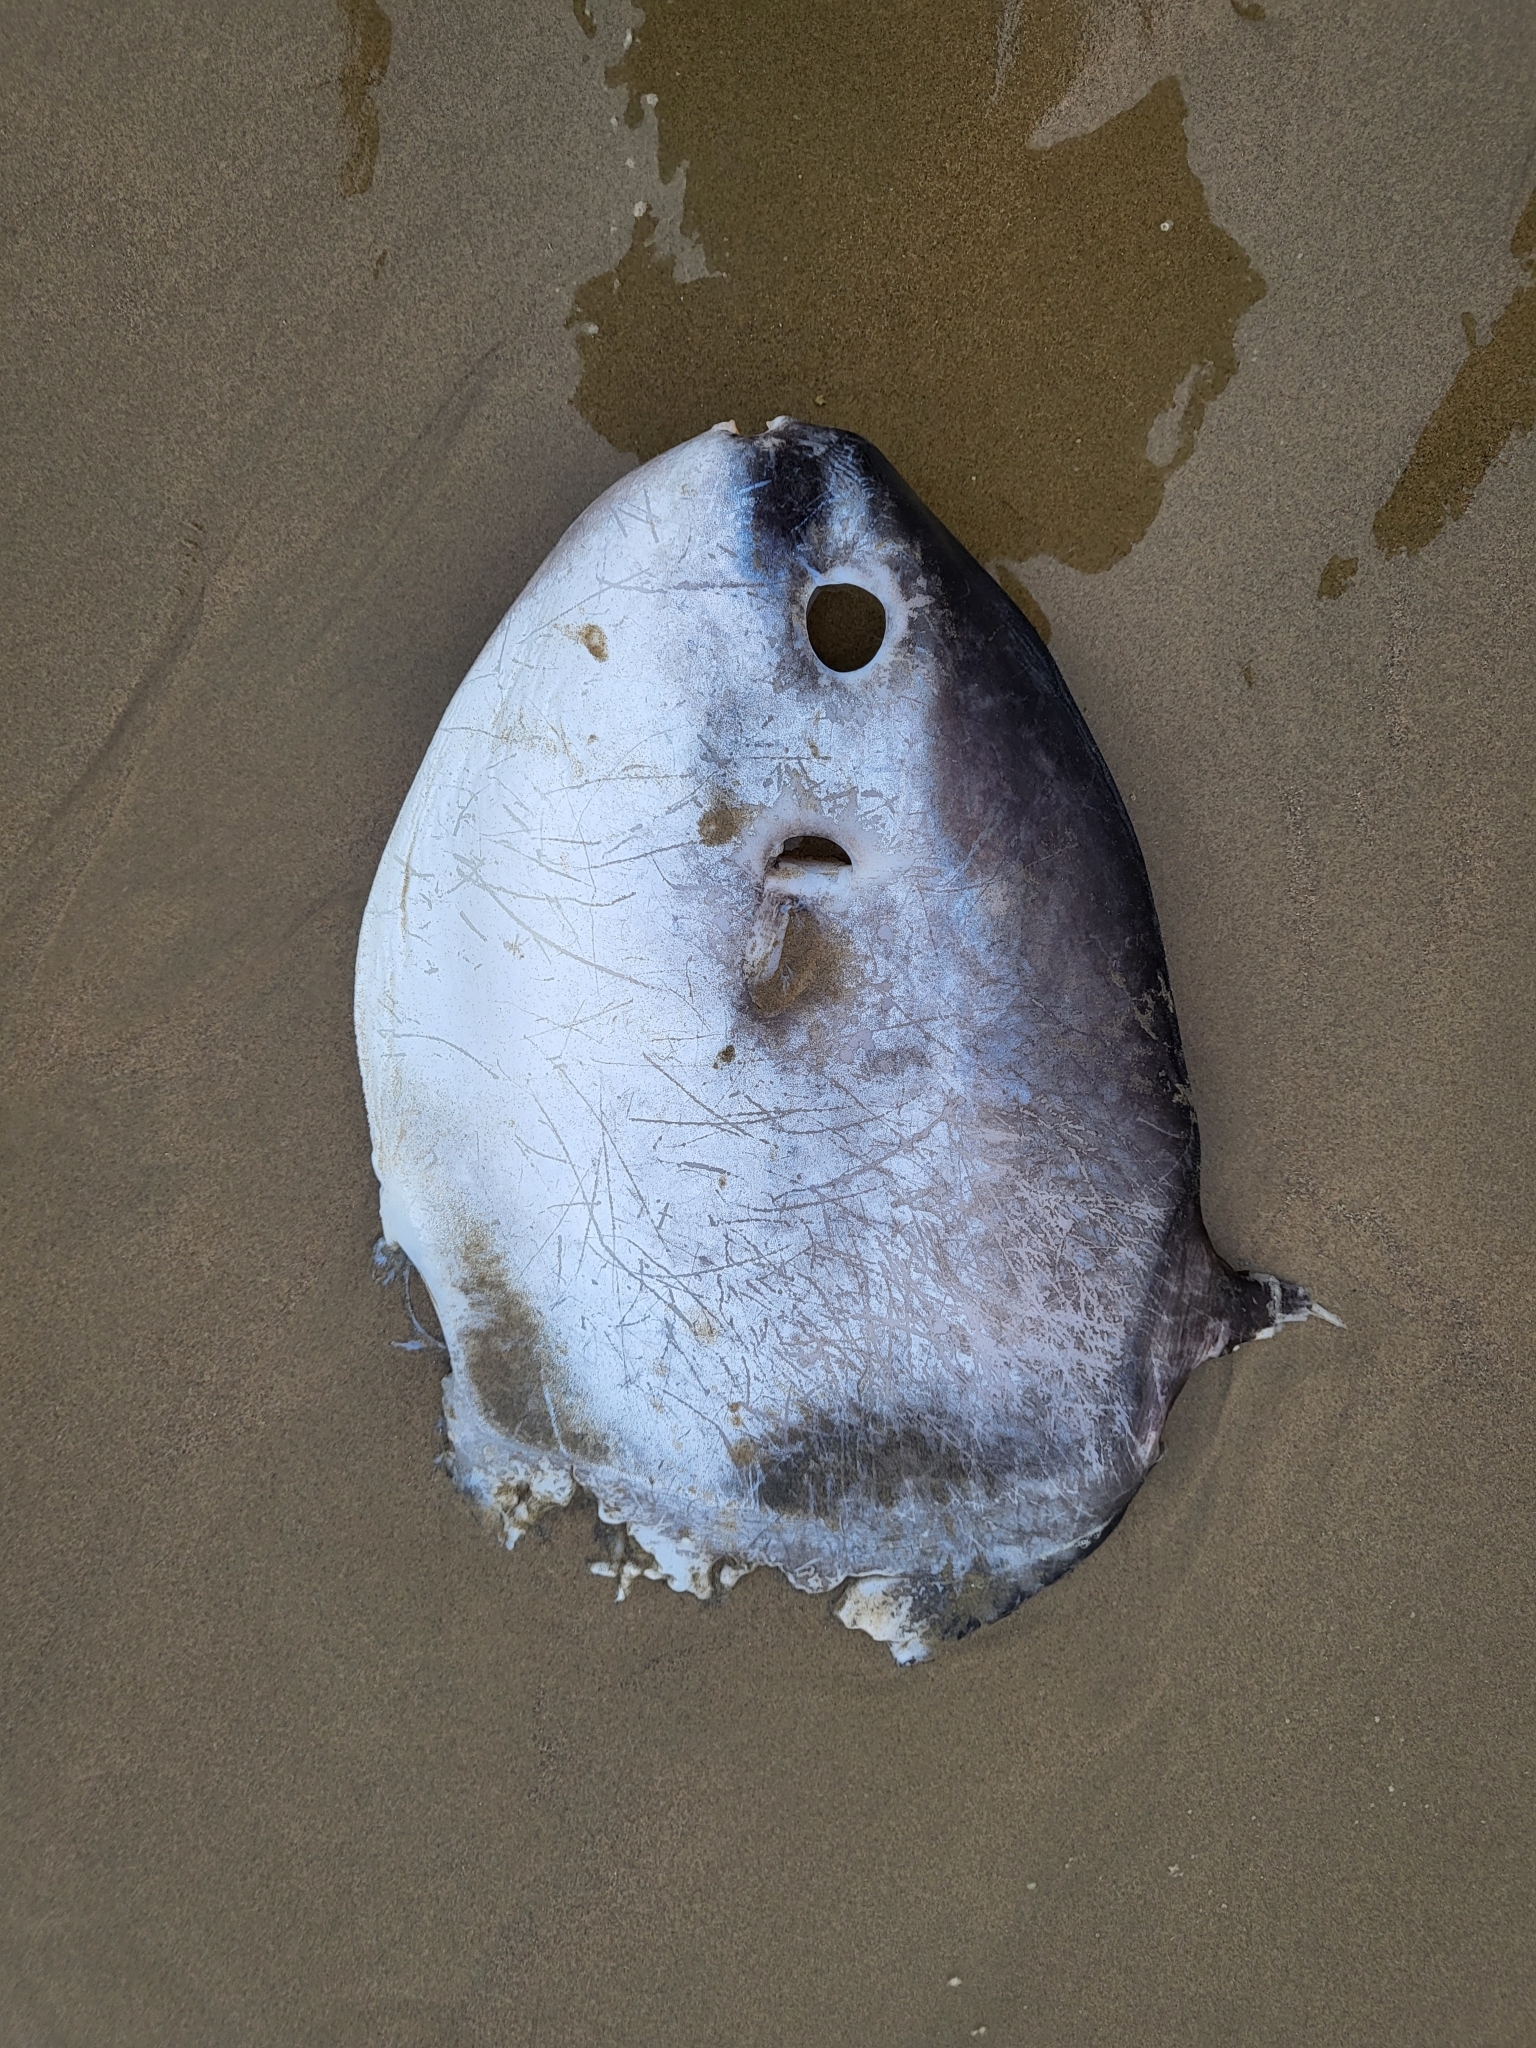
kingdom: Animalia
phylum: Chordata
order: Tetraodontiformes
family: Molidae
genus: Mola
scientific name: Mola mola
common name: Ocean sunfish
